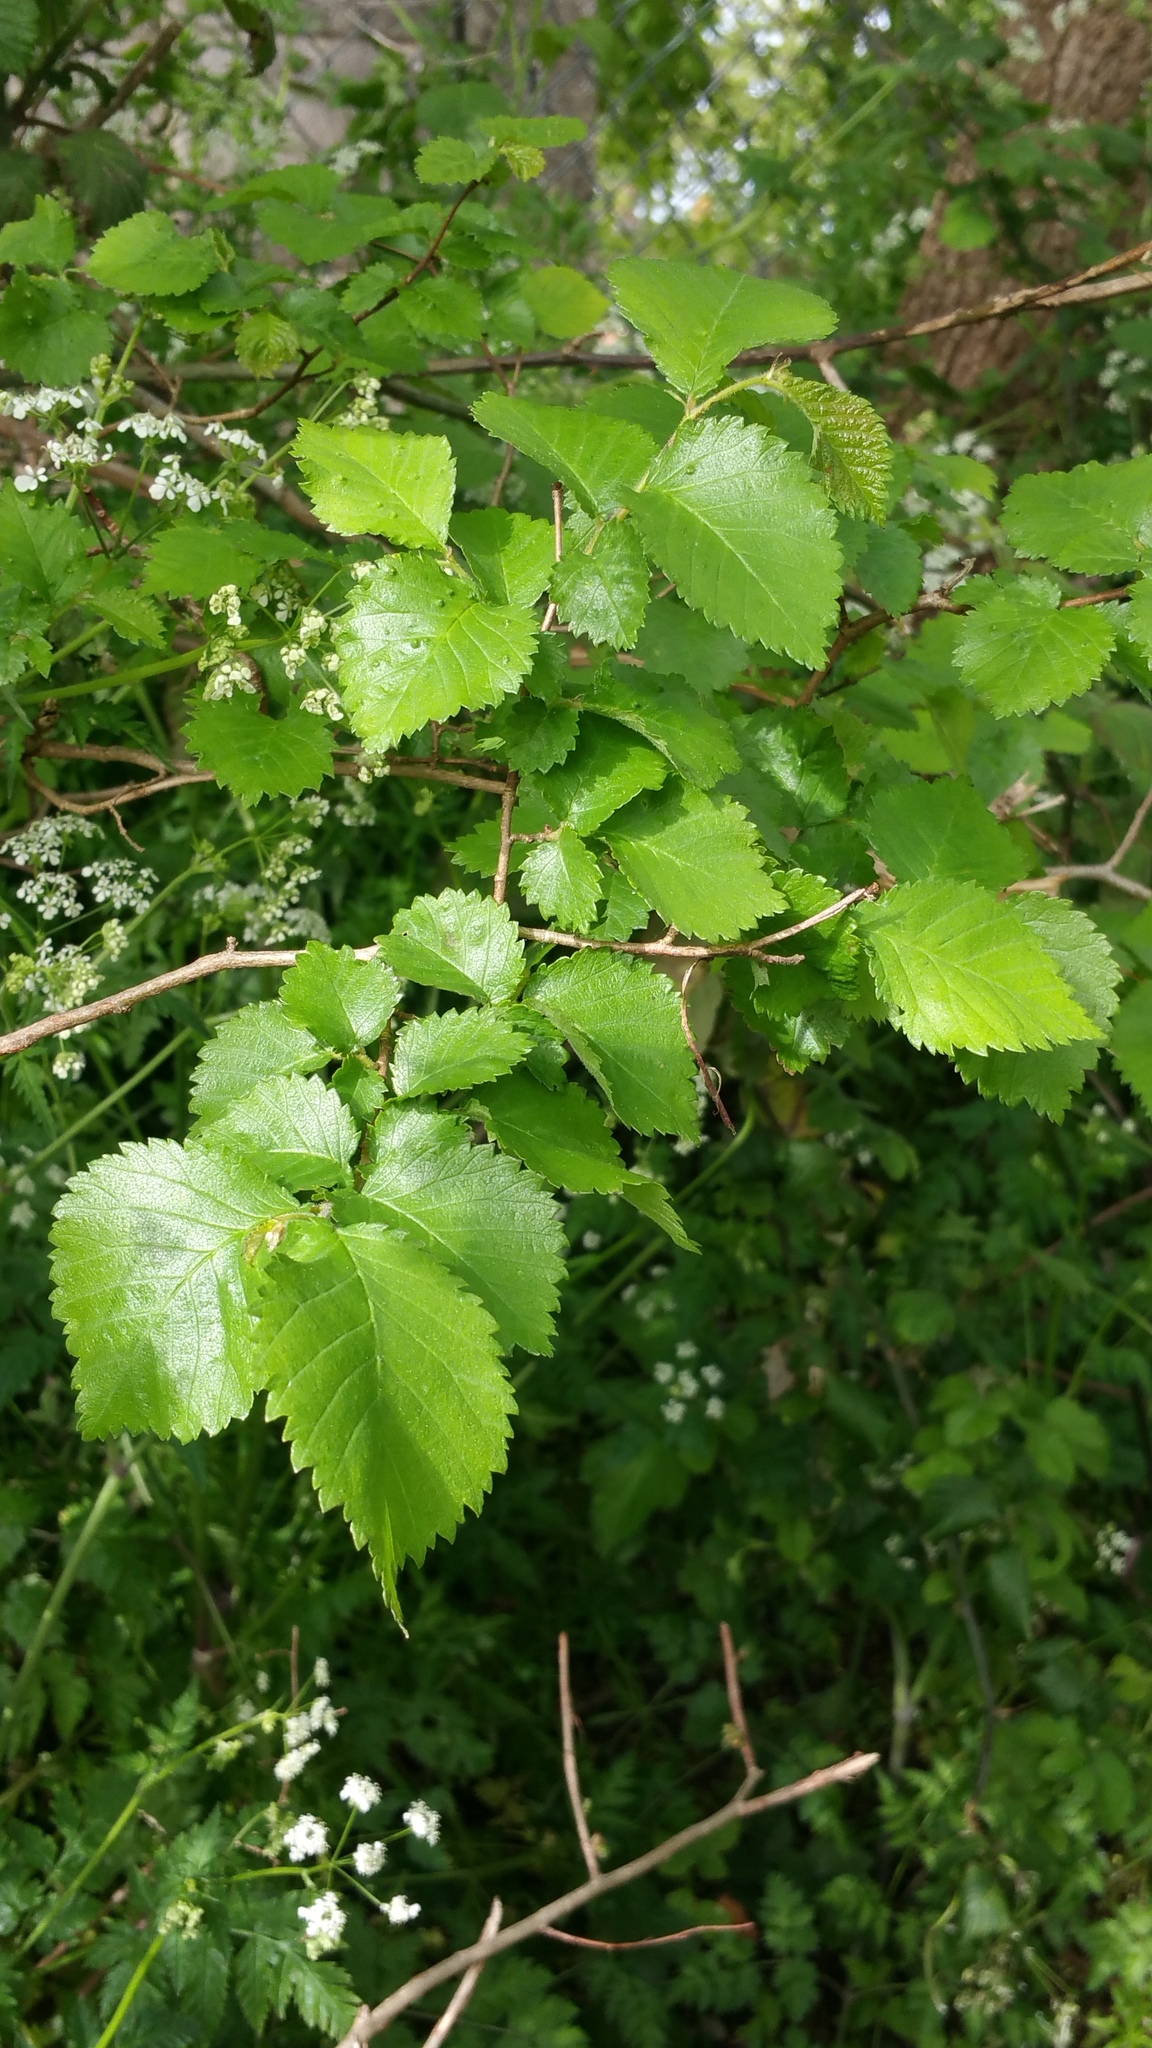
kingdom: Plantae
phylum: Tracheophyta
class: Magnoliopsida
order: Rosales
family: Ulmaceae
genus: Ulmus
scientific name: Ulmus minor
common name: Small-leaved elm
